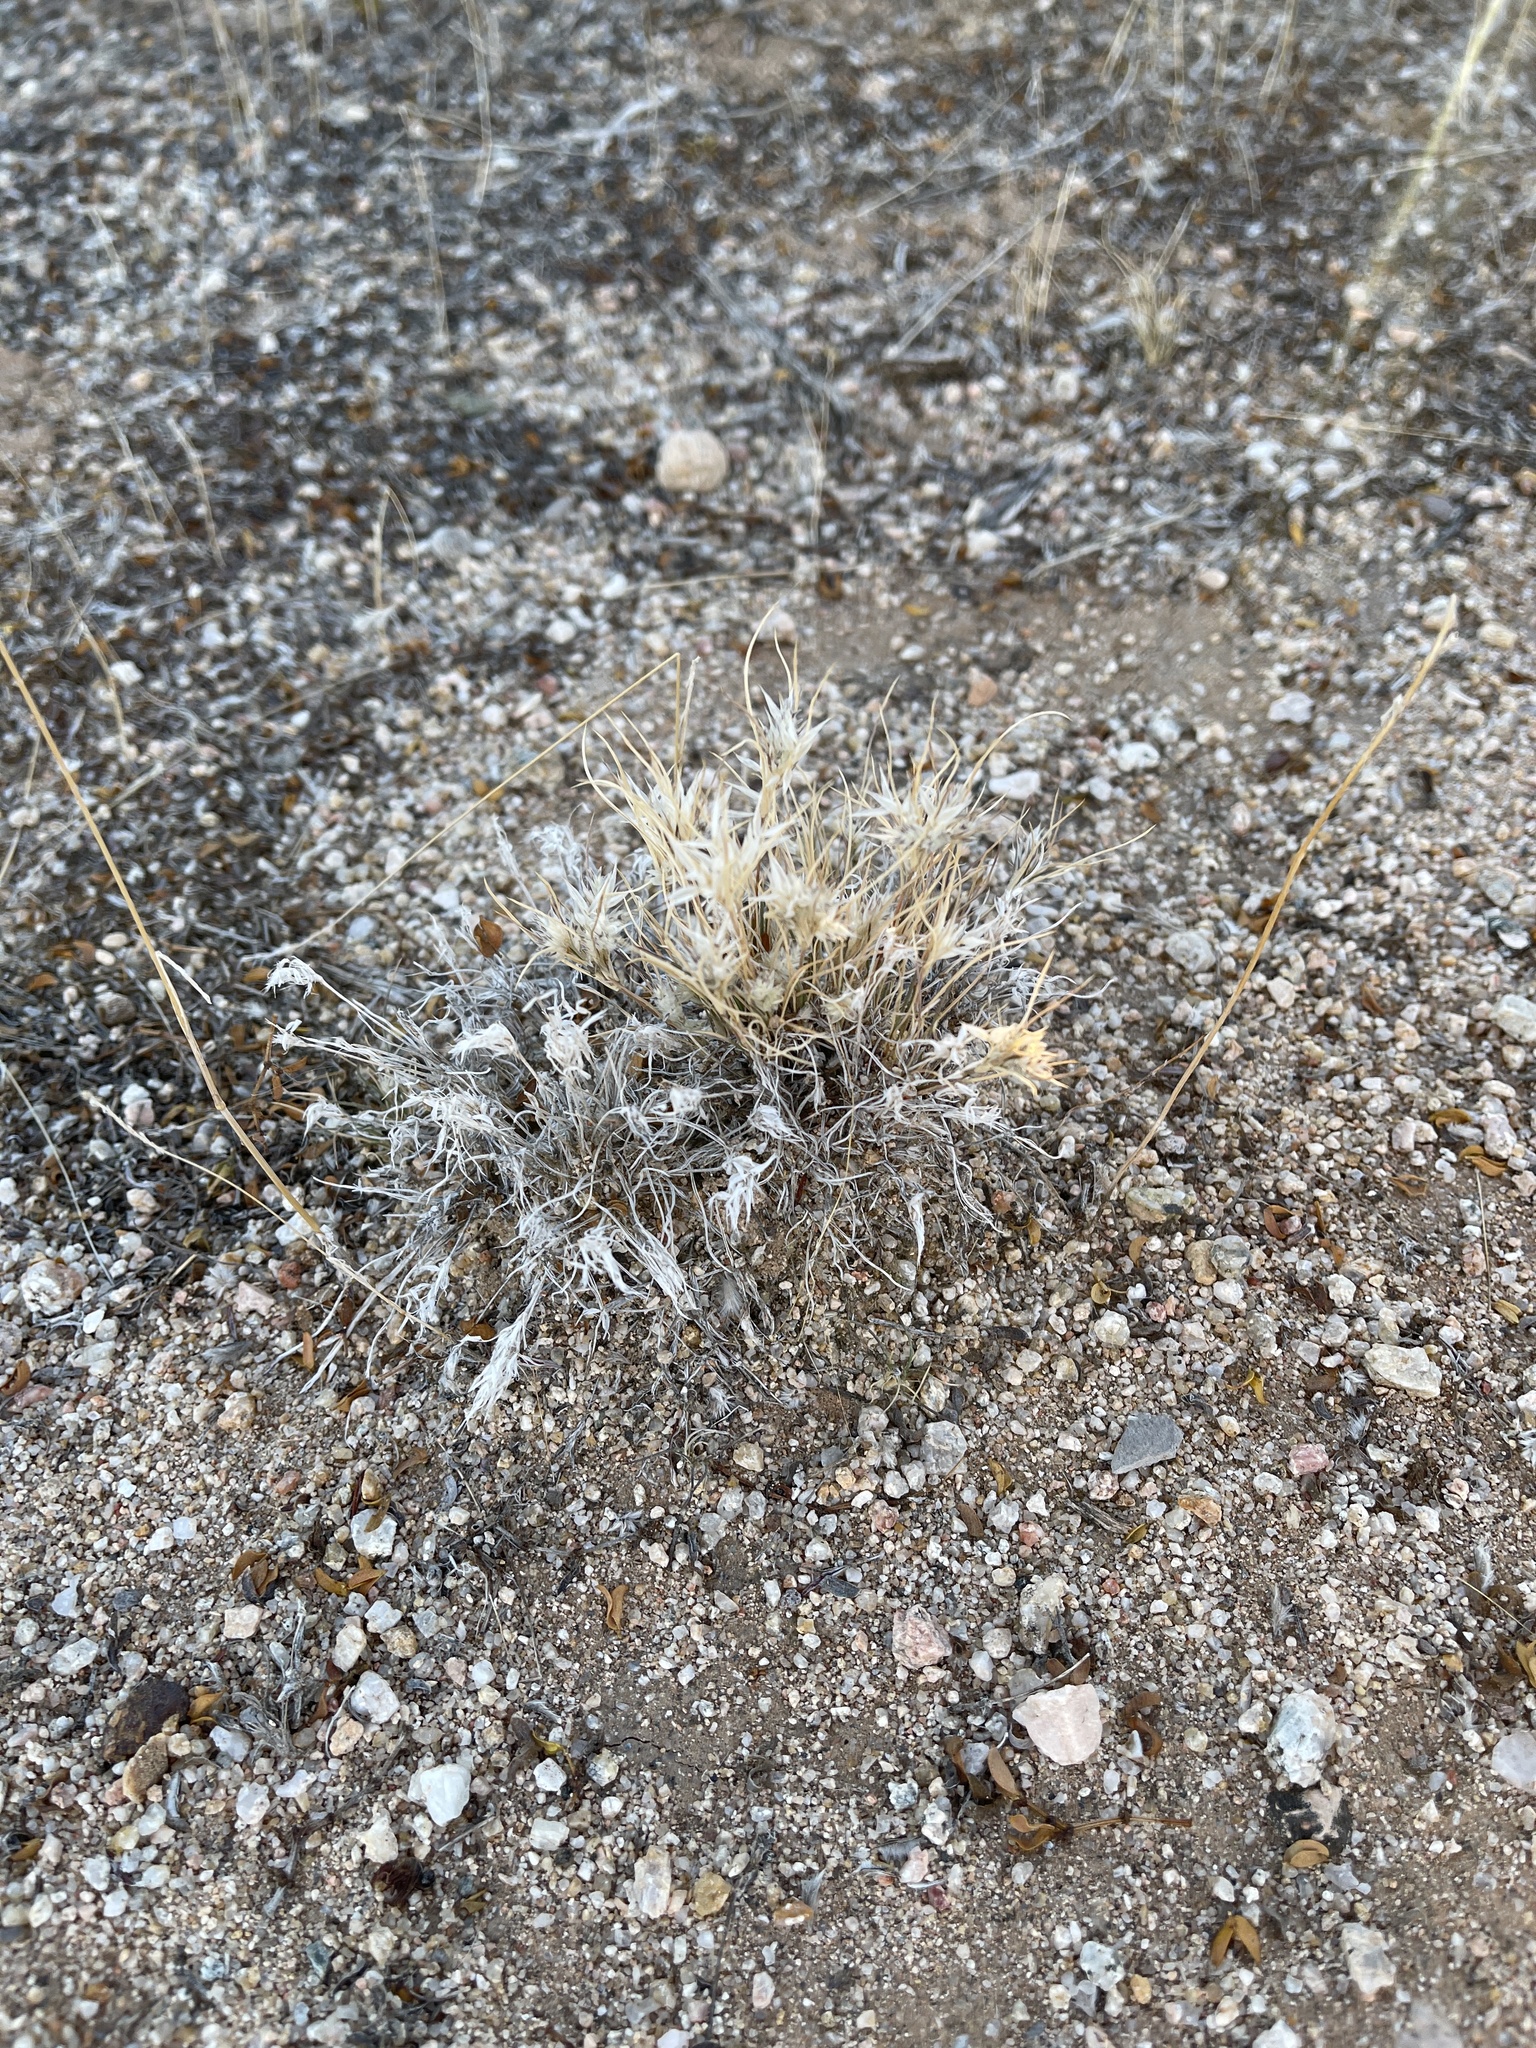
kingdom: Plantae
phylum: Tracheophyta
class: Liliopsida
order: Poales
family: Poaceae
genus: Dasyochloa
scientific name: Dasyochloa pulchella
